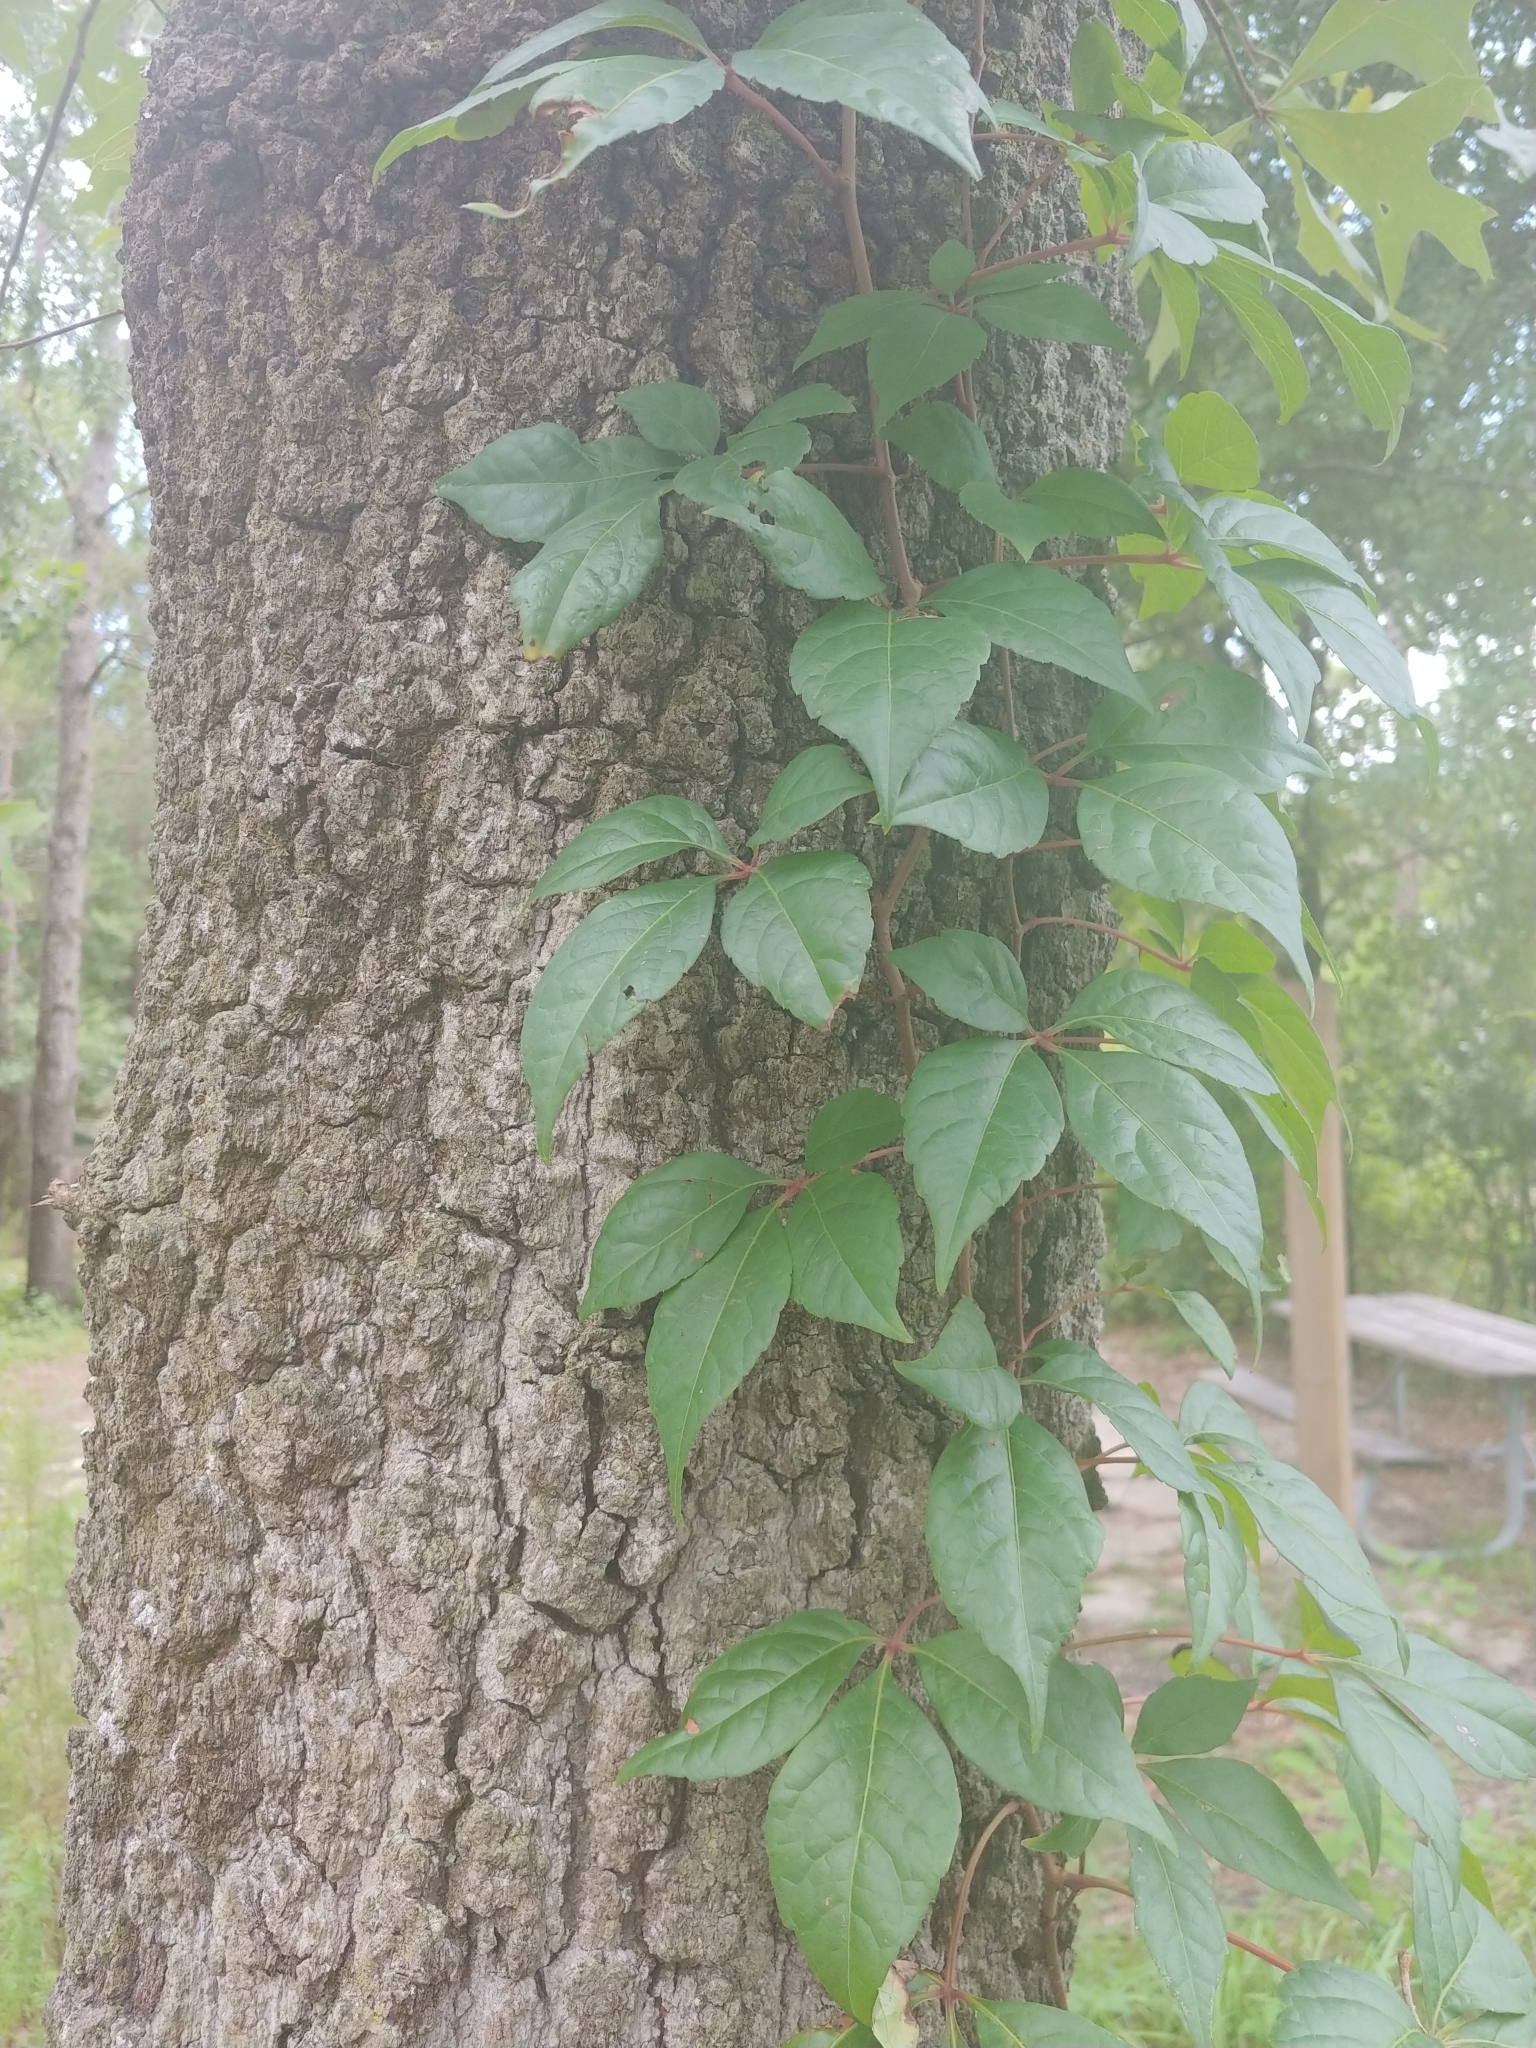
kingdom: Plantae
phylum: Tracheophyta
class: Magnoliopsida
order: Vitales
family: Vitaceae
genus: Parthenocissus
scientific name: Parthenocissus quinquefolia
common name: Virginia-creeper
